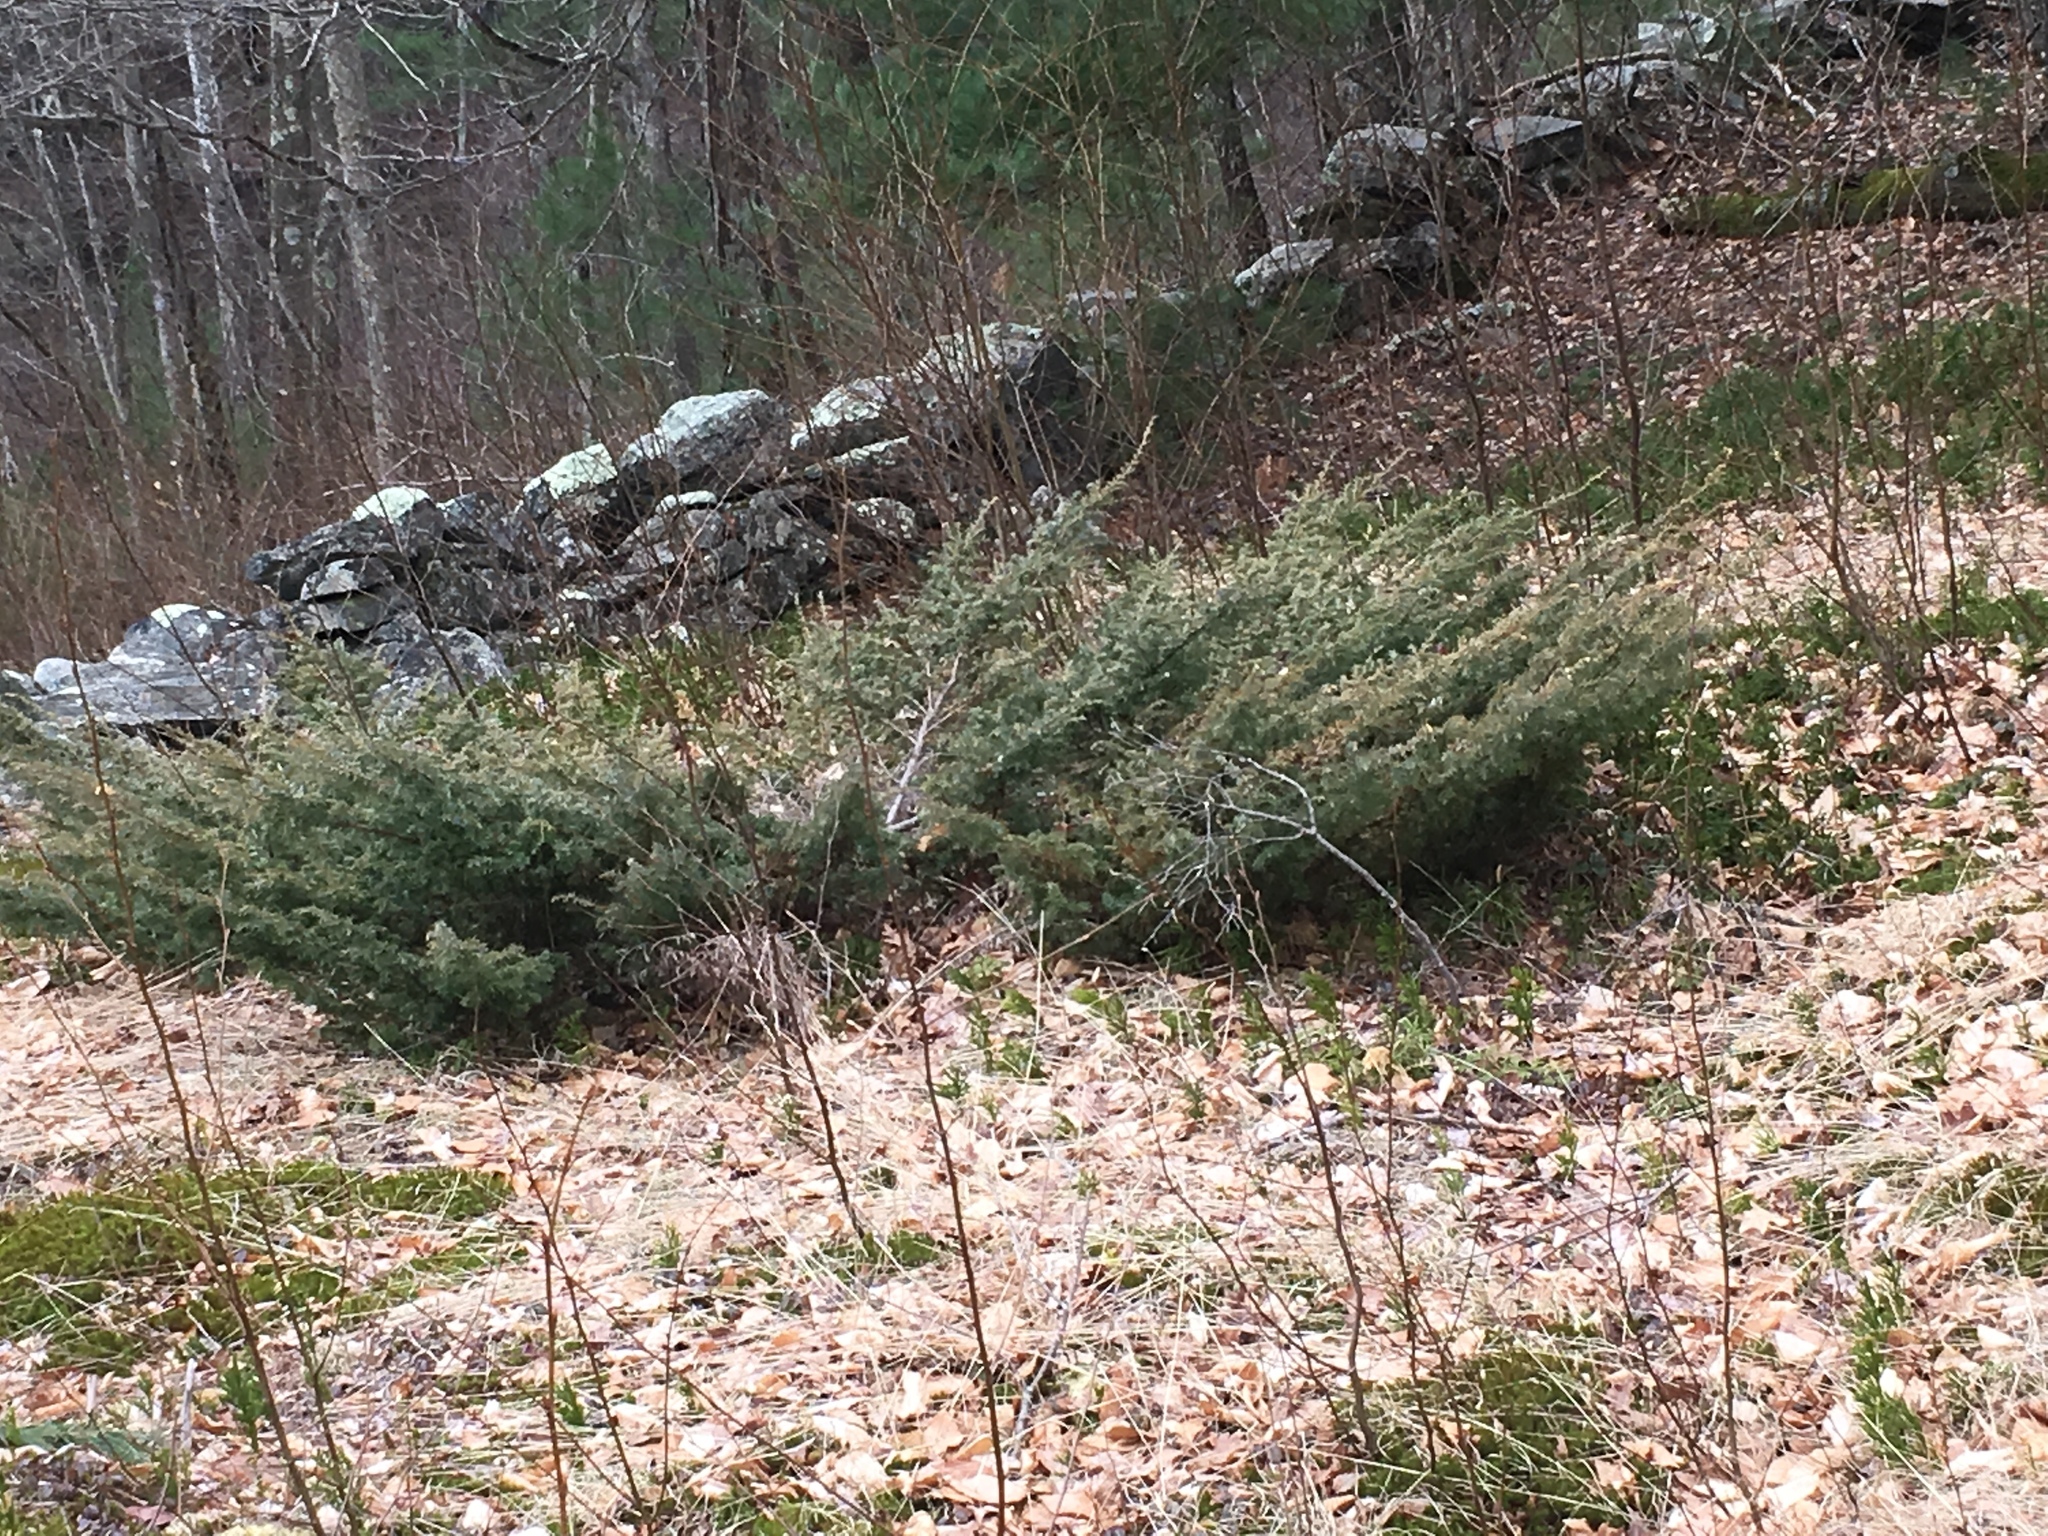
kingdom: Plantae
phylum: Tracheophyta
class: Pinopsida
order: Pinales
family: Cupressaceae
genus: Juniperus
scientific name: Juniperus communis
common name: Common juniper
